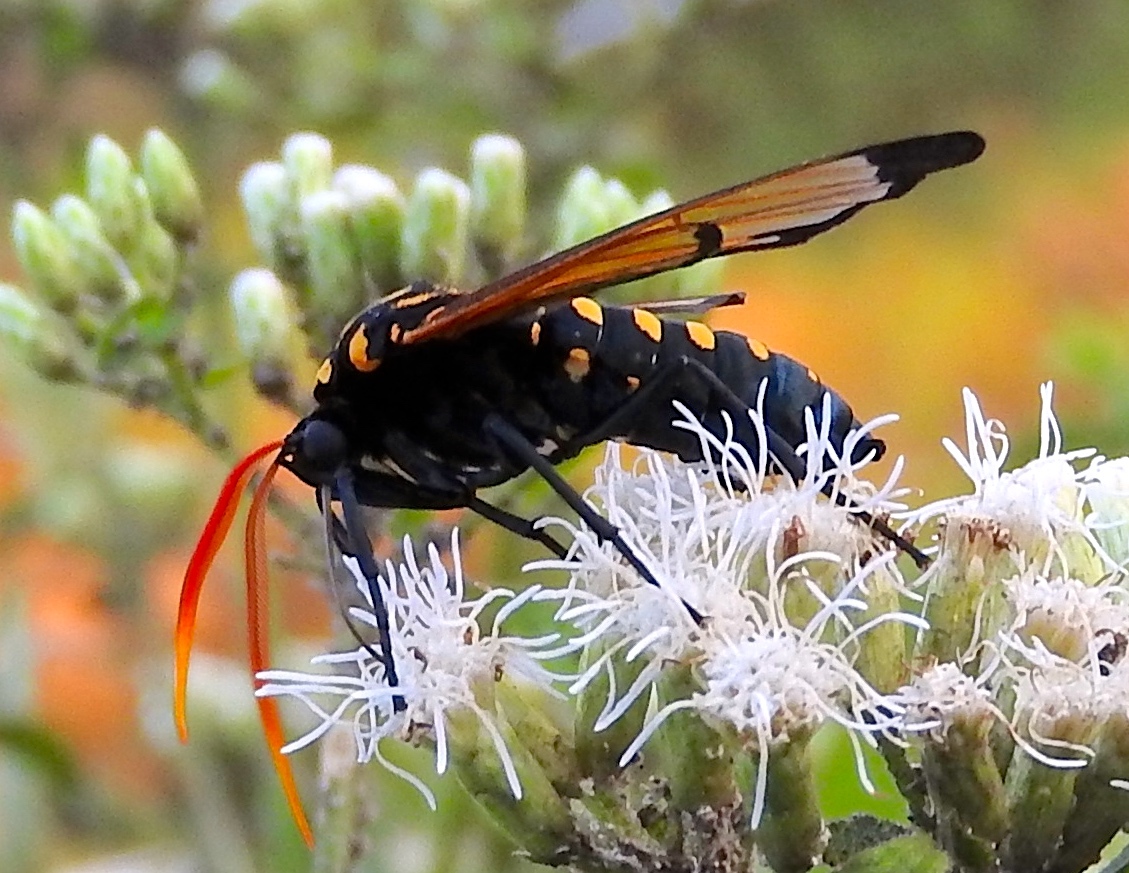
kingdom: Animalia
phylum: Arthropoda
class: Insecta
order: Lepidoptera
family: Erebidae
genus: Isanthrene
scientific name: Isanthrene
